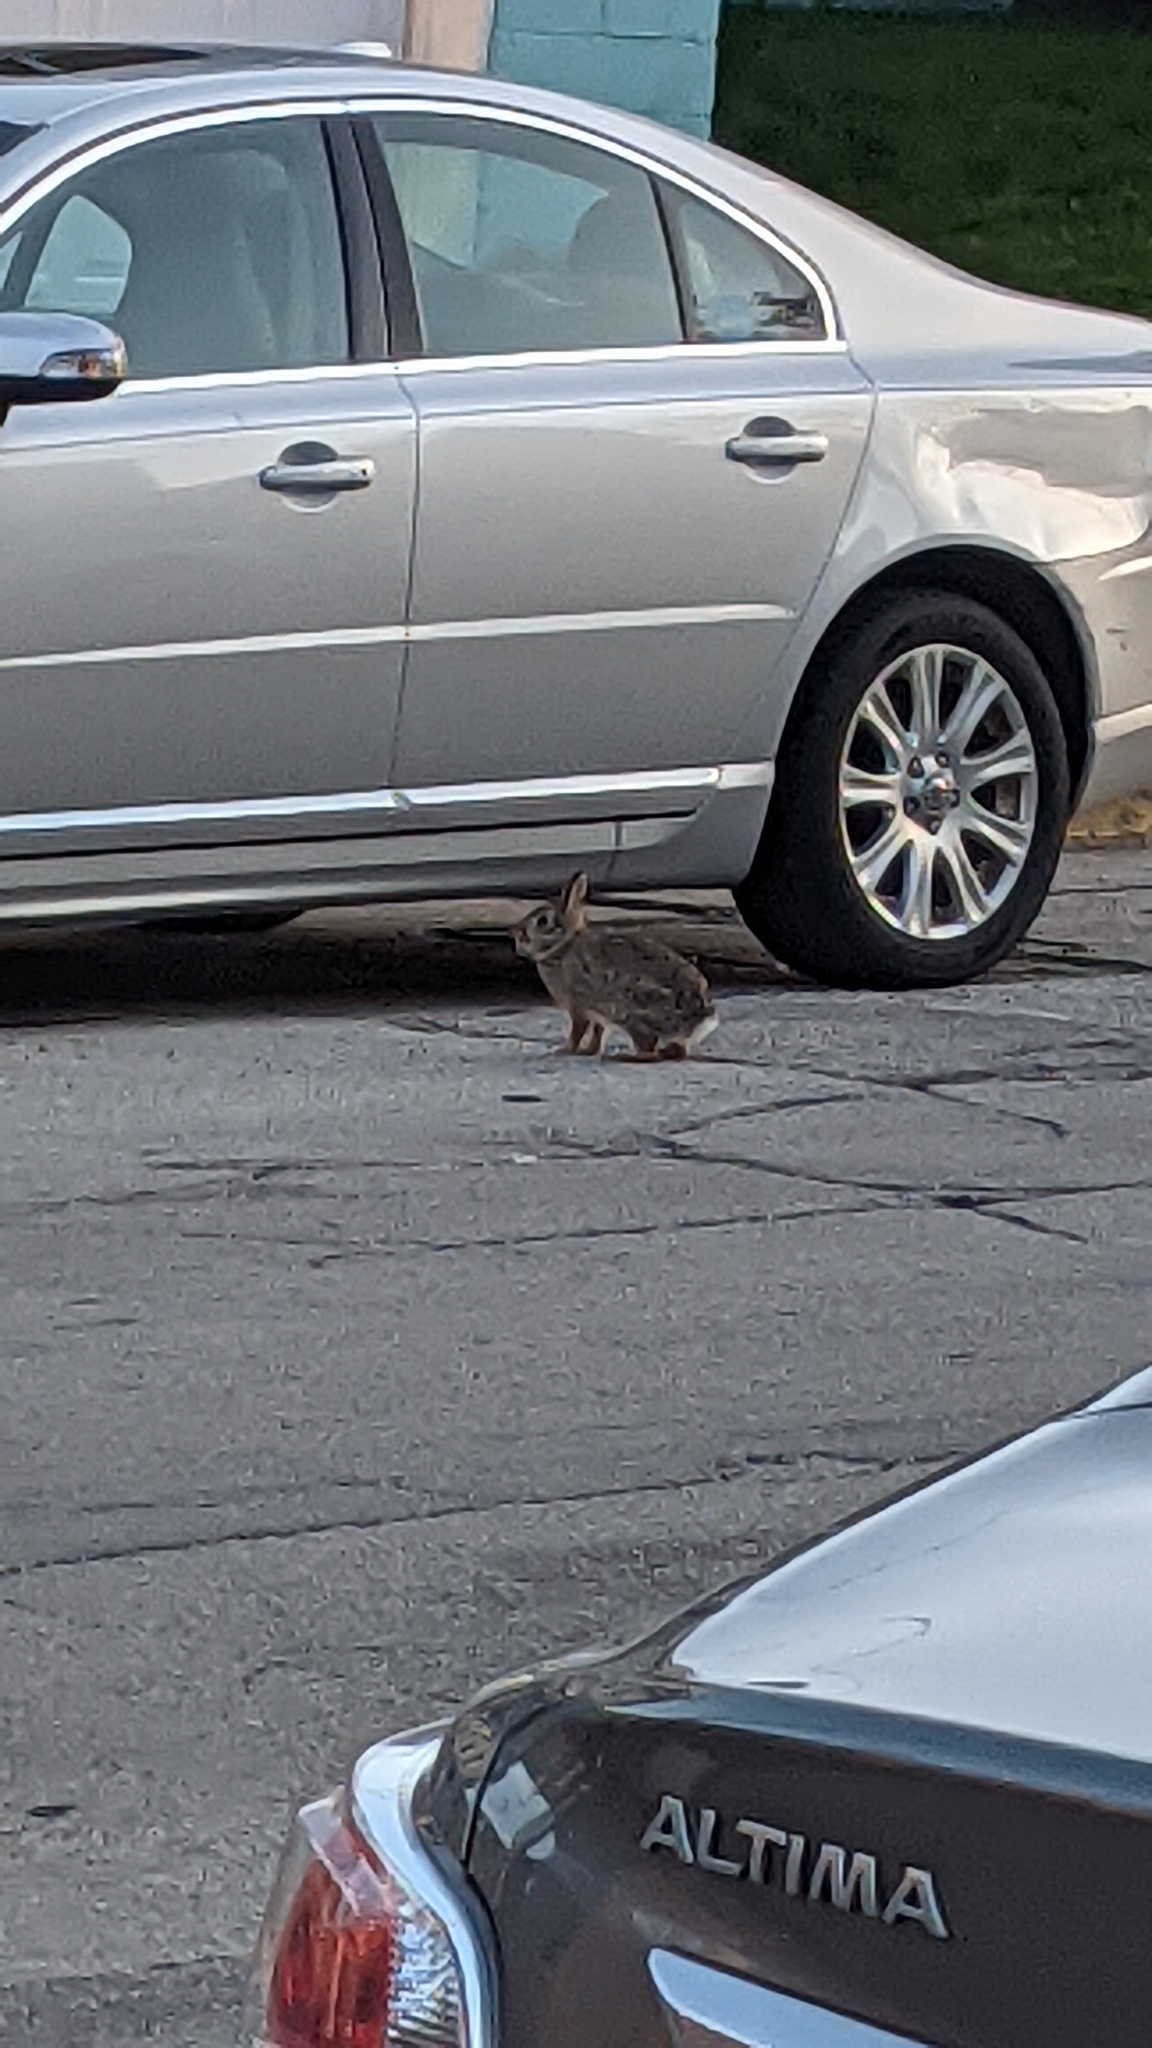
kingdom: Animalia
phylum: Chordata
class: Mammalia
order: Lagomorpha
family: Leporidae
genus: Sylvilagus
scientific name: Sylvilagus floridanus
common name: Eastern cottontail
